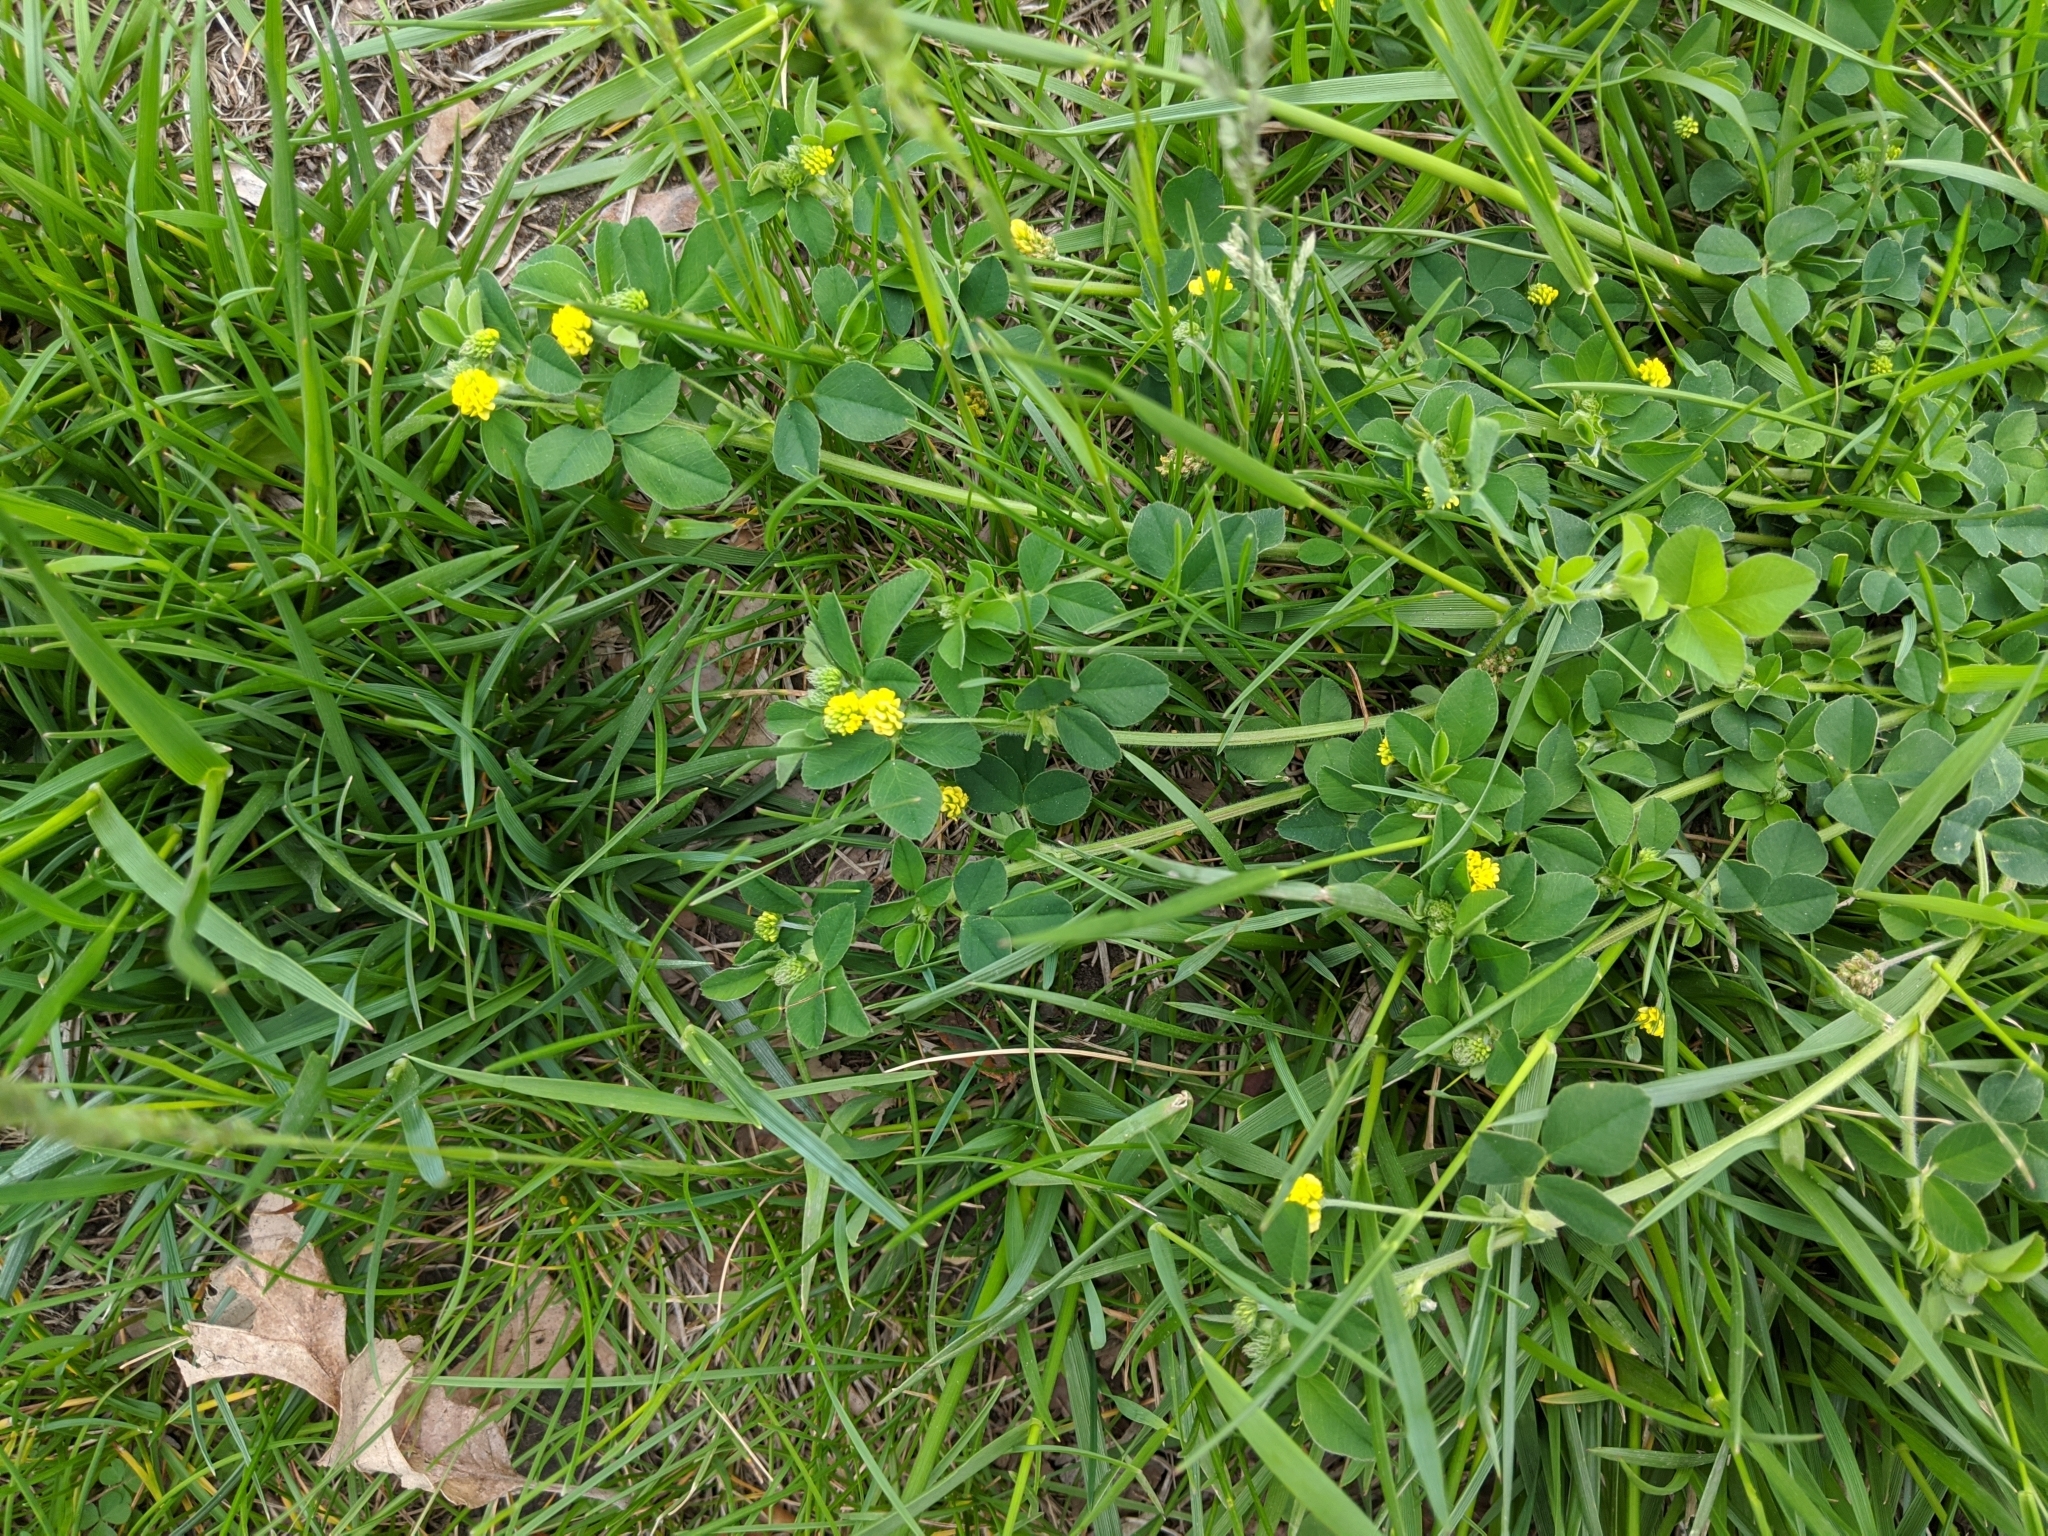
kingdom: Plantae
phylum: Tracheophyta
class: Magnoliopsida
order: Fabales
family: Fabaceae
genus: Medicago
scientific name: Medicago lupulina
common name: Black medick
